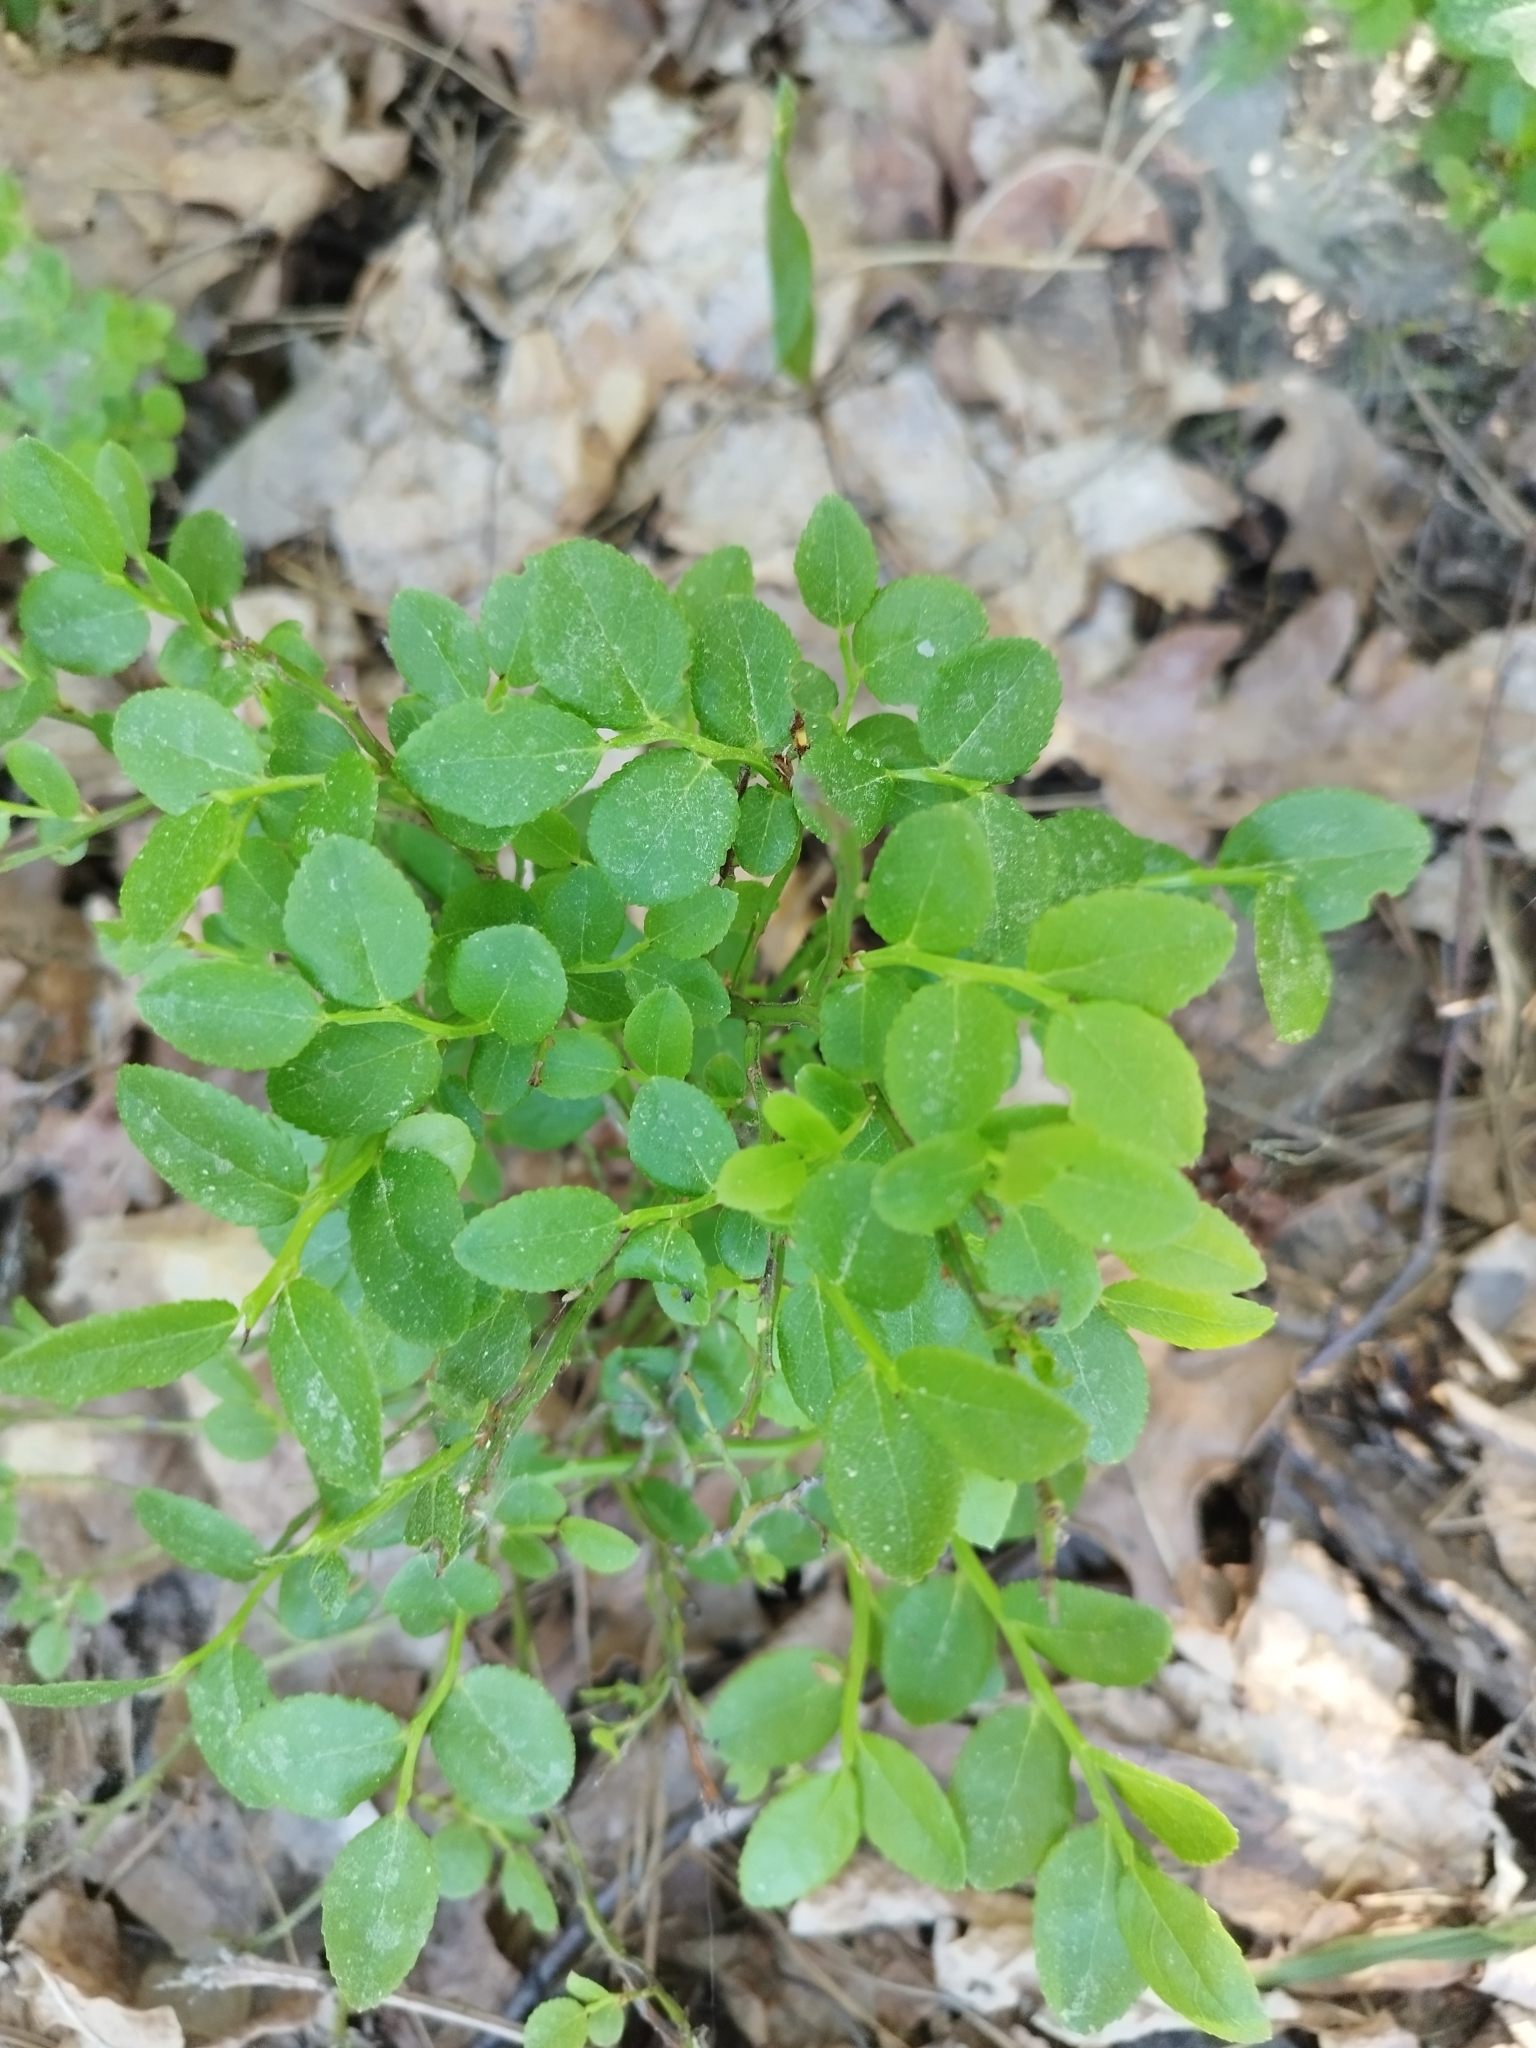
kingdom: Plantae
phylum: Tracheophyta
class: Magnoliopsida
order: Ericales
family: Ericaceae
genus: Vaccinium
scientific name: Vaccinium myrtillus
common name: Bilberry
